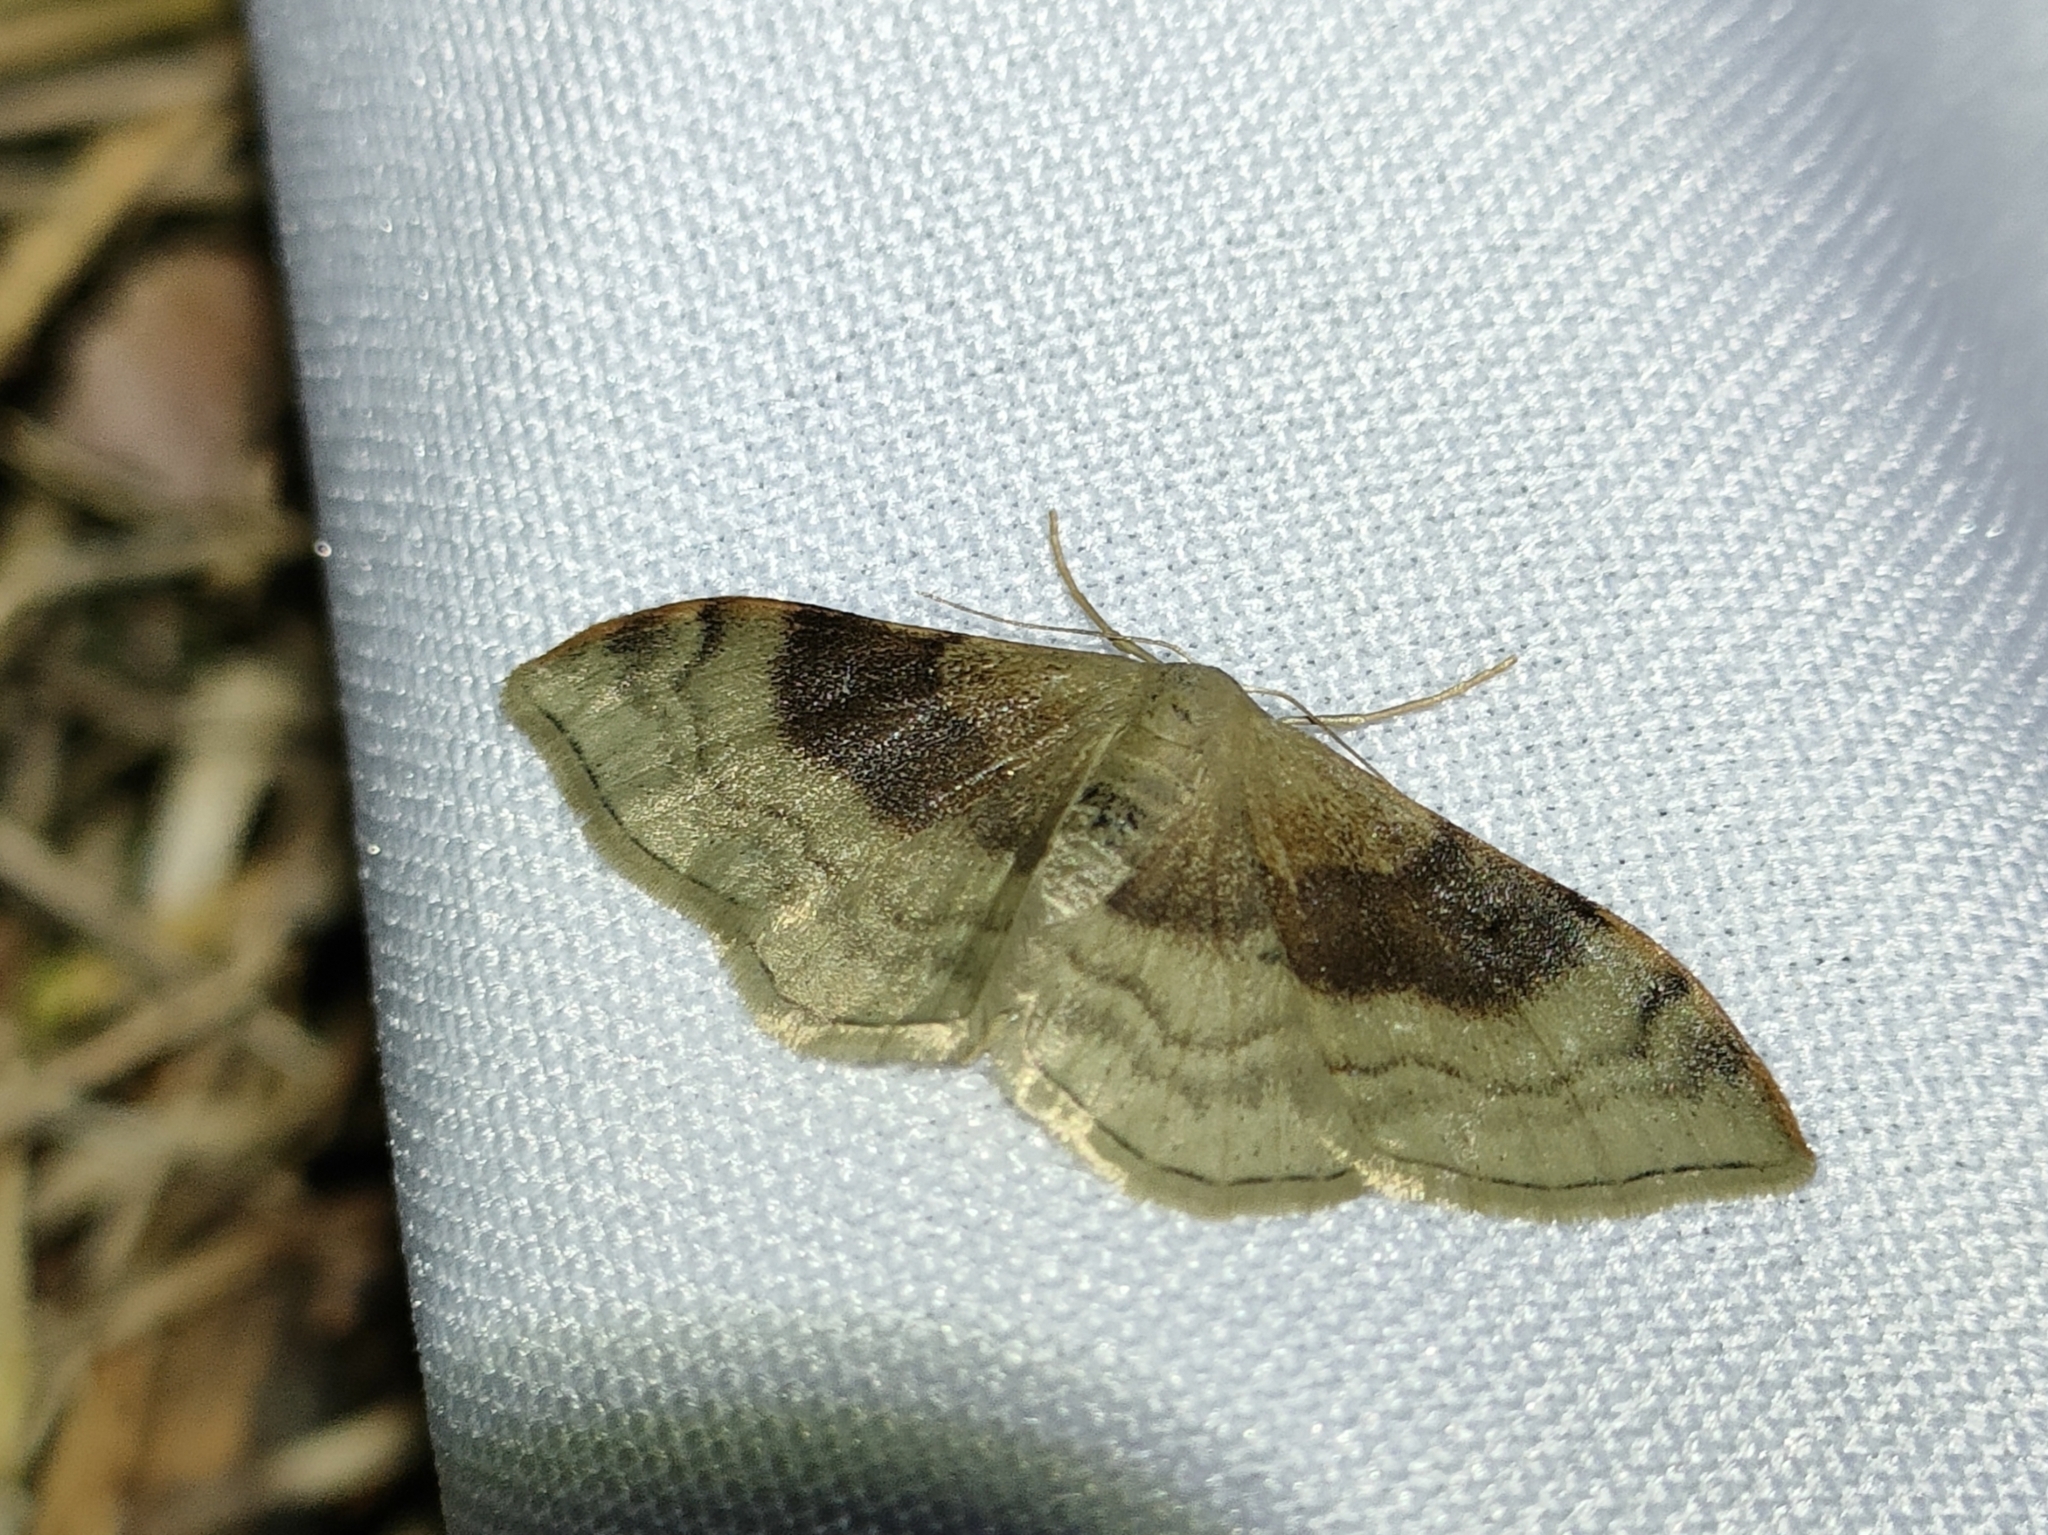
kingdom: Animalia
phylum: Arthropoda
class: Insecta
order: Lepidoptera
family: Geometridae
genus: Idaea
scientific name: Idaea degeneraria
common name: Portland ribbon wave
